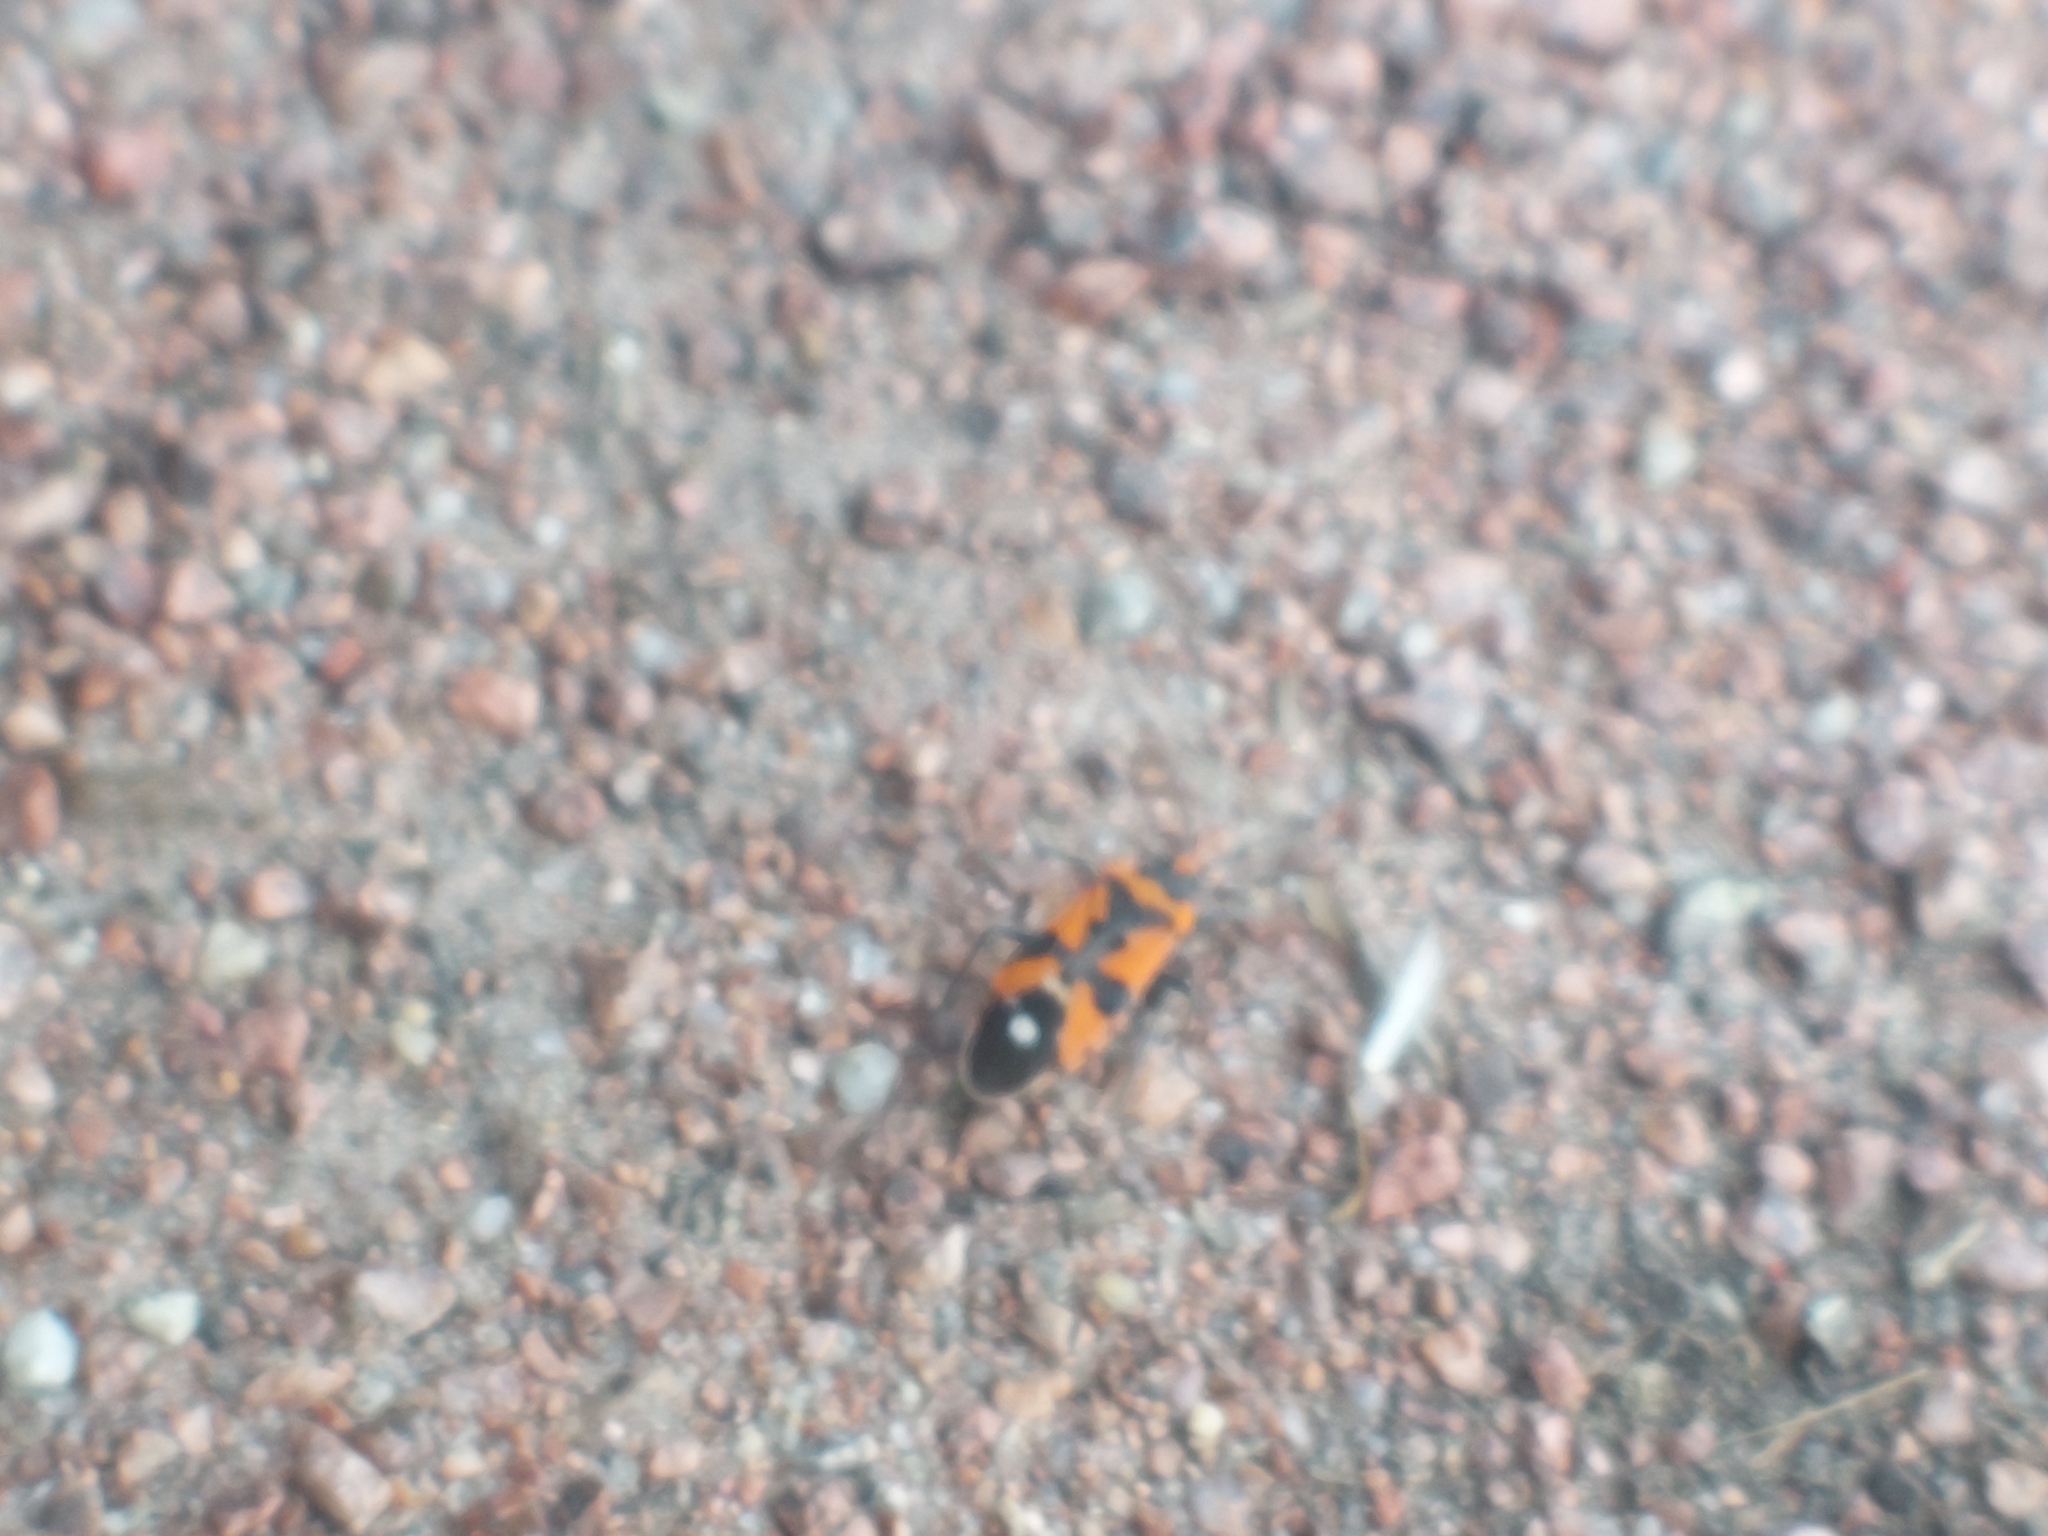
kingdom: Animalia
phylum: Arthropoda
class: Insecta
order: Hemiptera
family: Lygaeidae
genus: Lygaeus
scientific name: Lygaeus equestris
